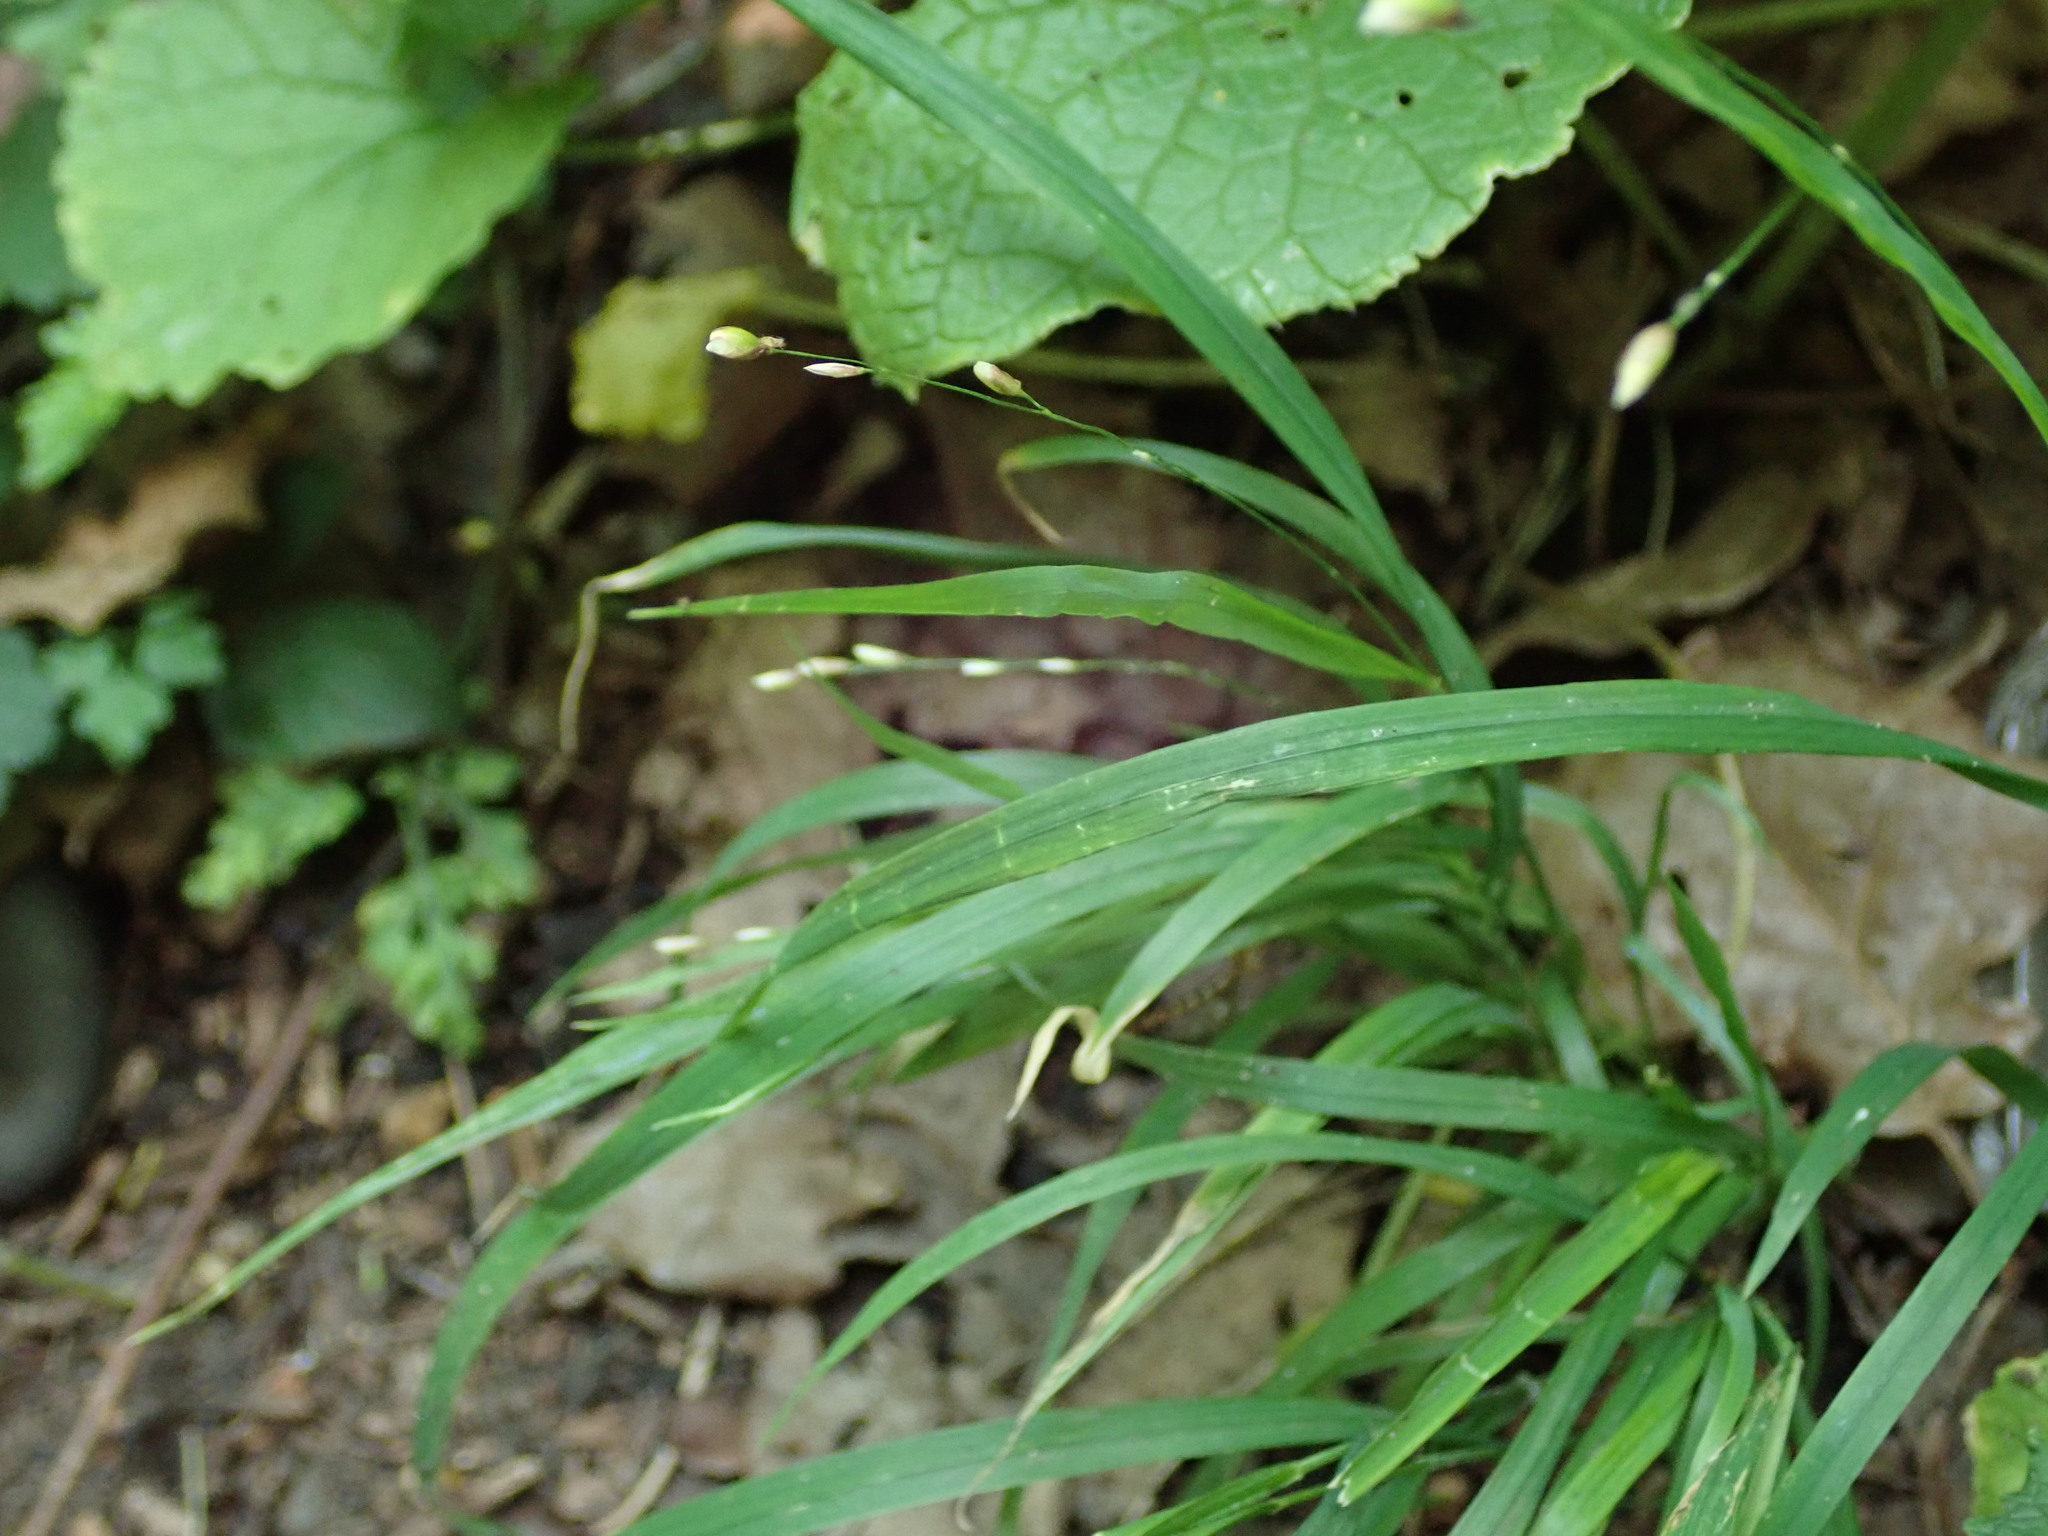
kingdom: Plantae
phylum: Tracheophyta
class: Liliopsida
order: Poales
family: Poaceae
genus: Melica
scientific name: Melica uniflora
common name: Wood melick
